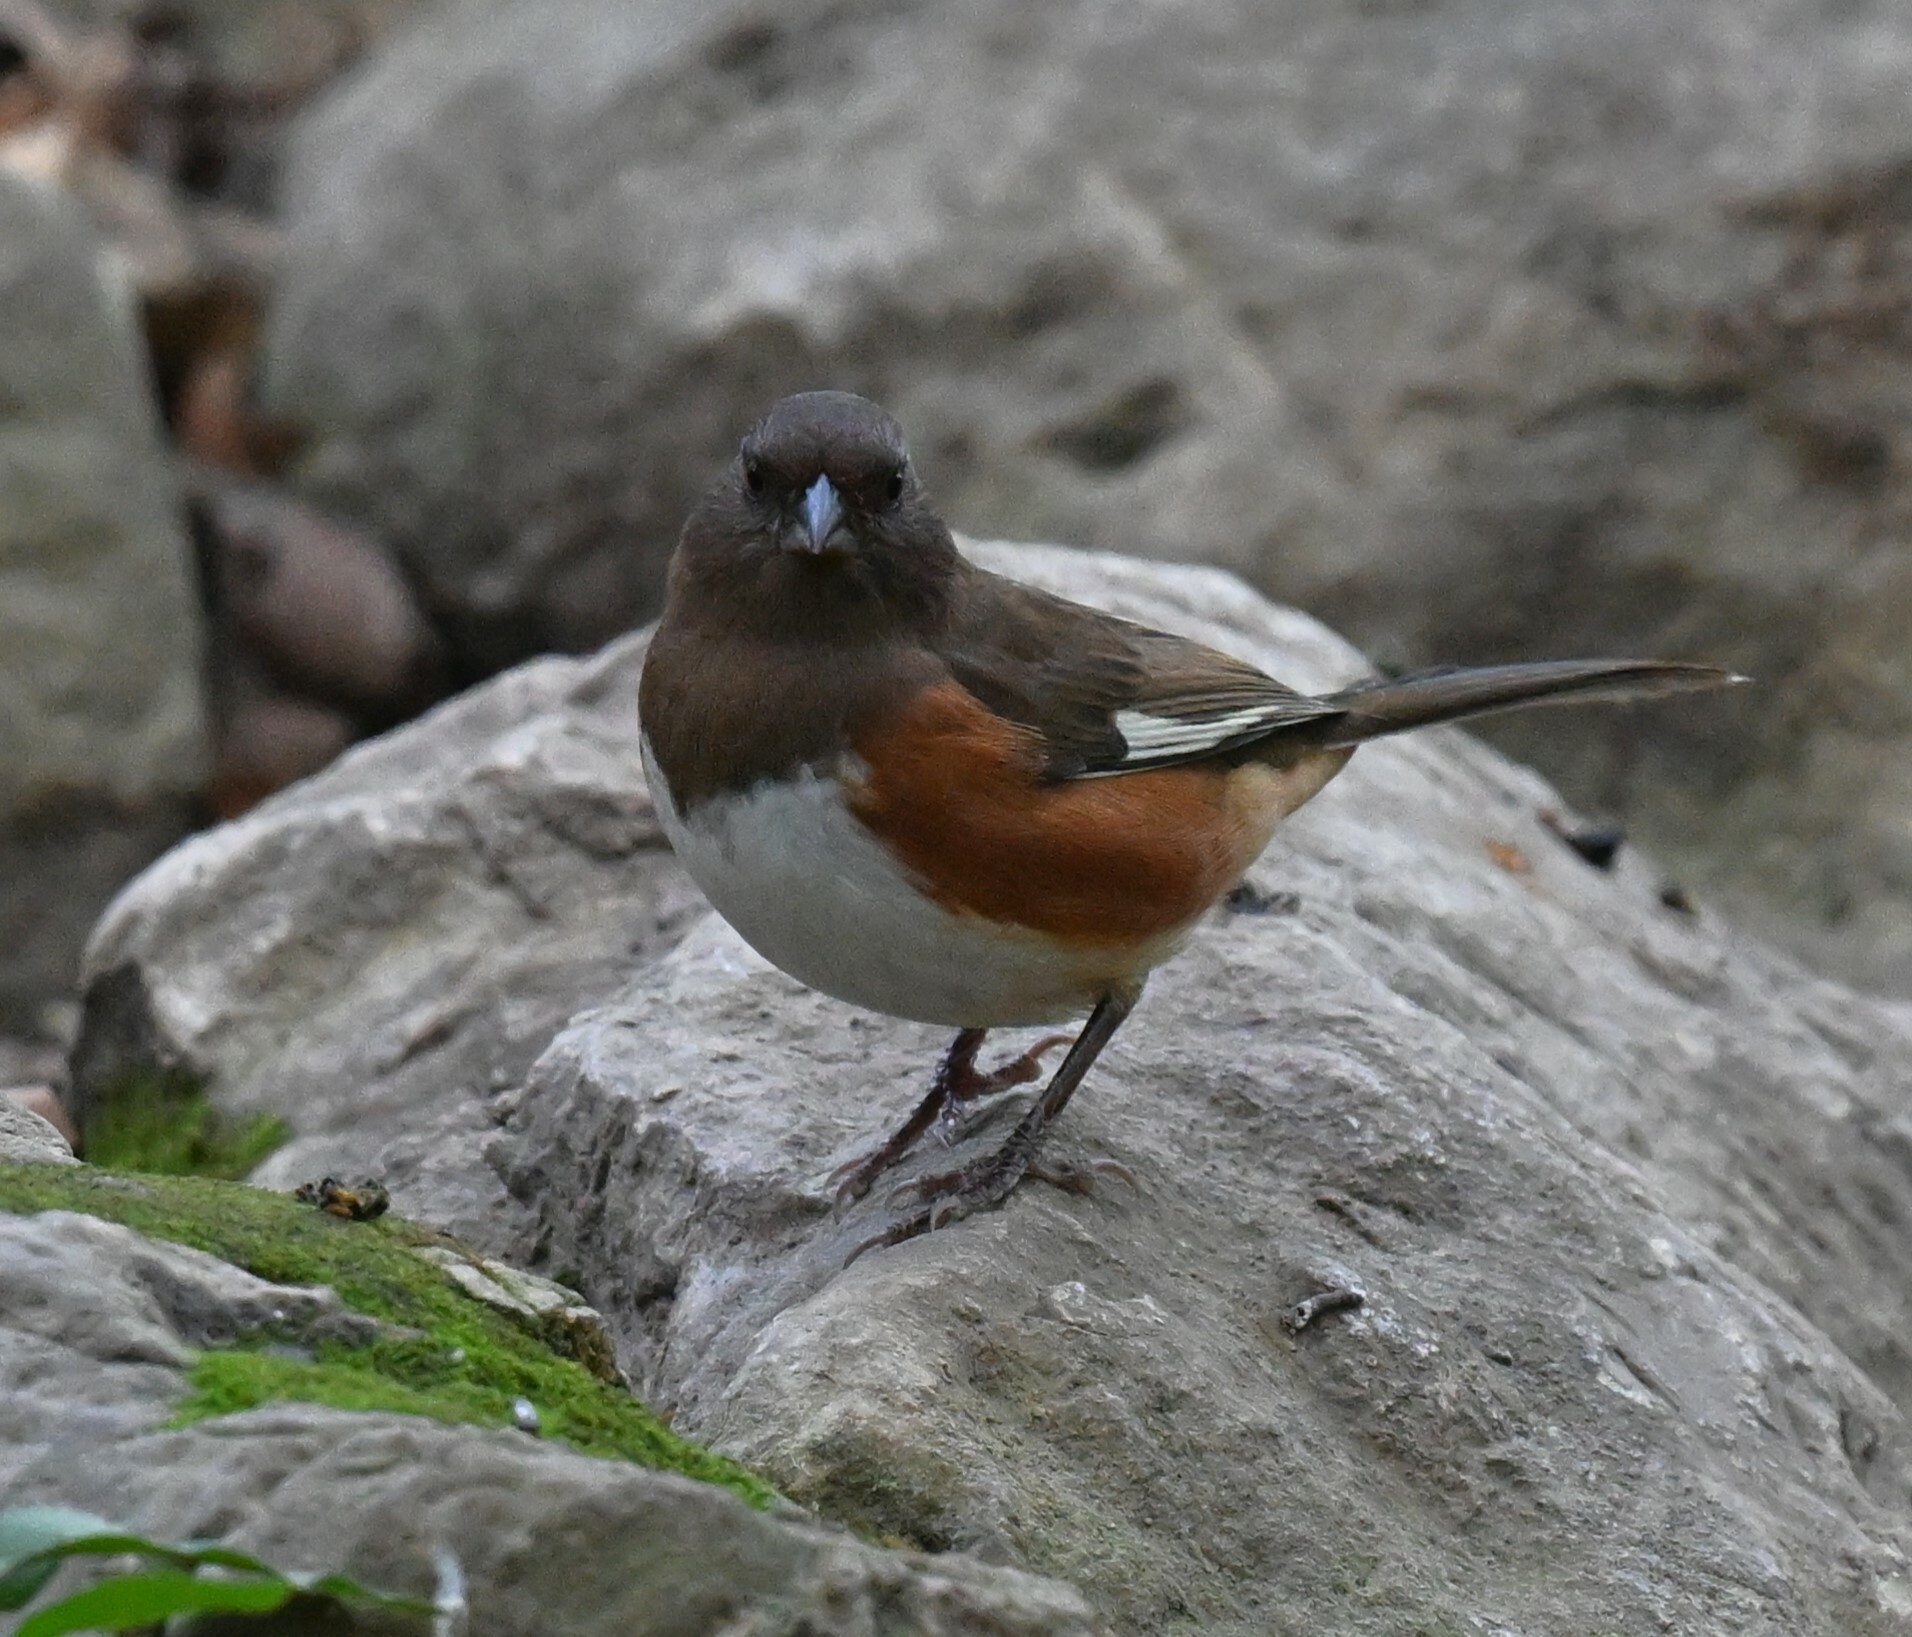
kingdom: Animalia
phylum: Chordata
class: Aves
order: Passeriformes
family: Passerellidae
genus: Pipilo
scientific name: Pipilo erythrophthalmus
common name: Eastern towhee
